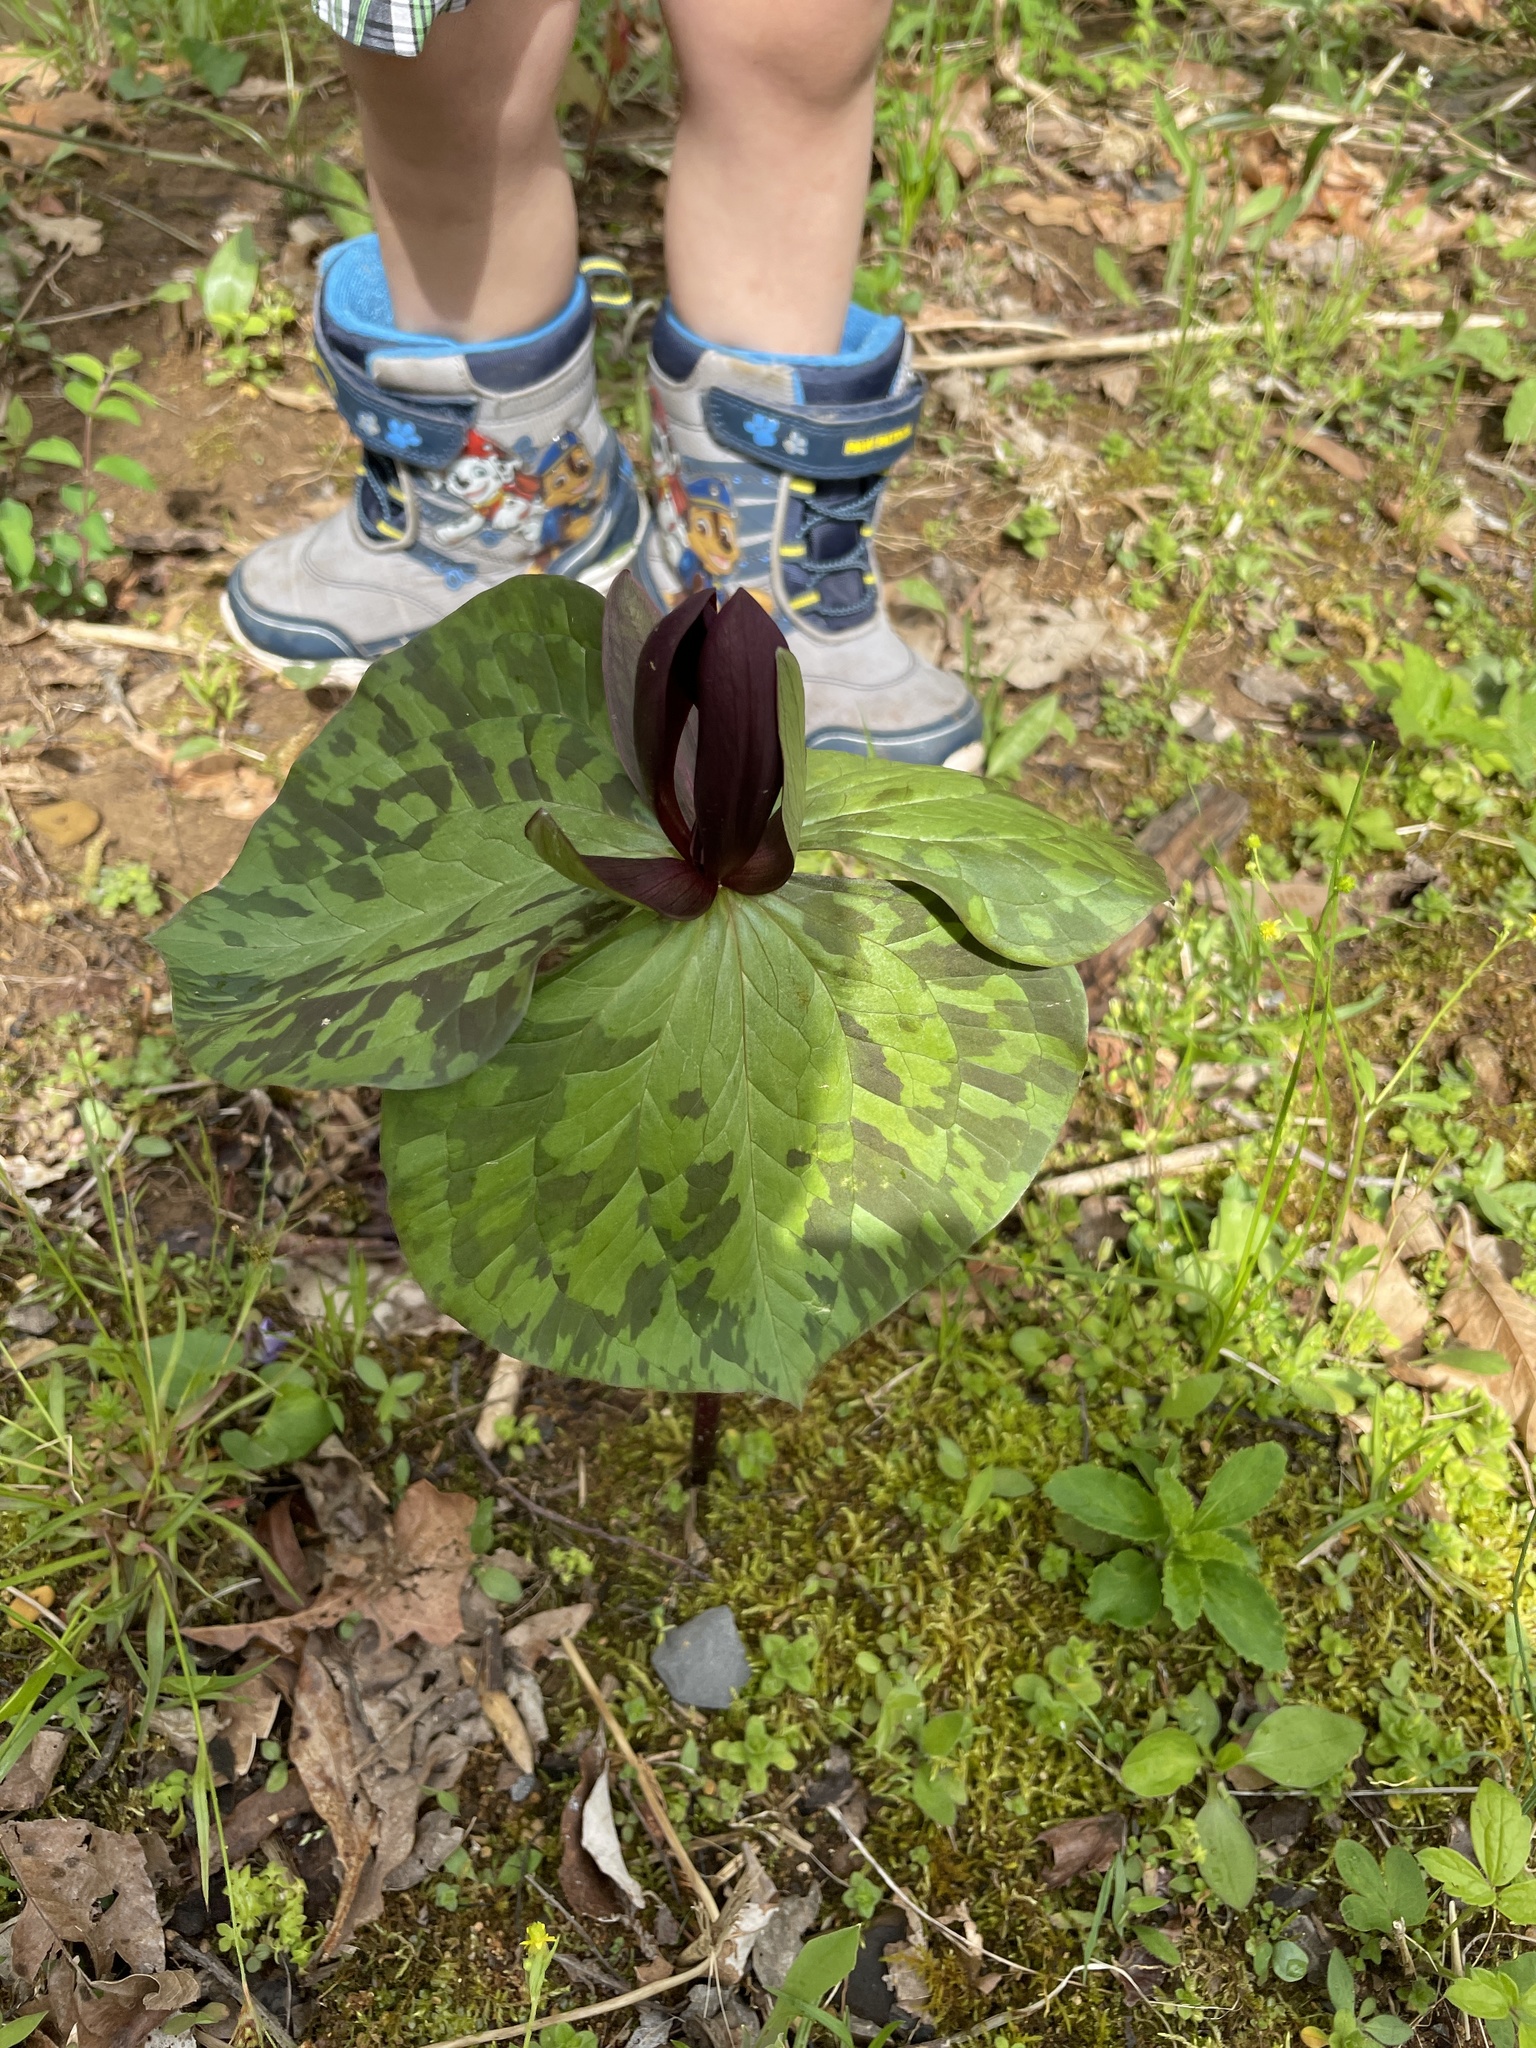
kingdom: Plantae
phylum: Tracheophyta
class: Liliopsida
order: Liliales
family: Melanthiaceae
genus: Trillium
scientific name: Trillium cuneatum
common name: Cuneate trillium
